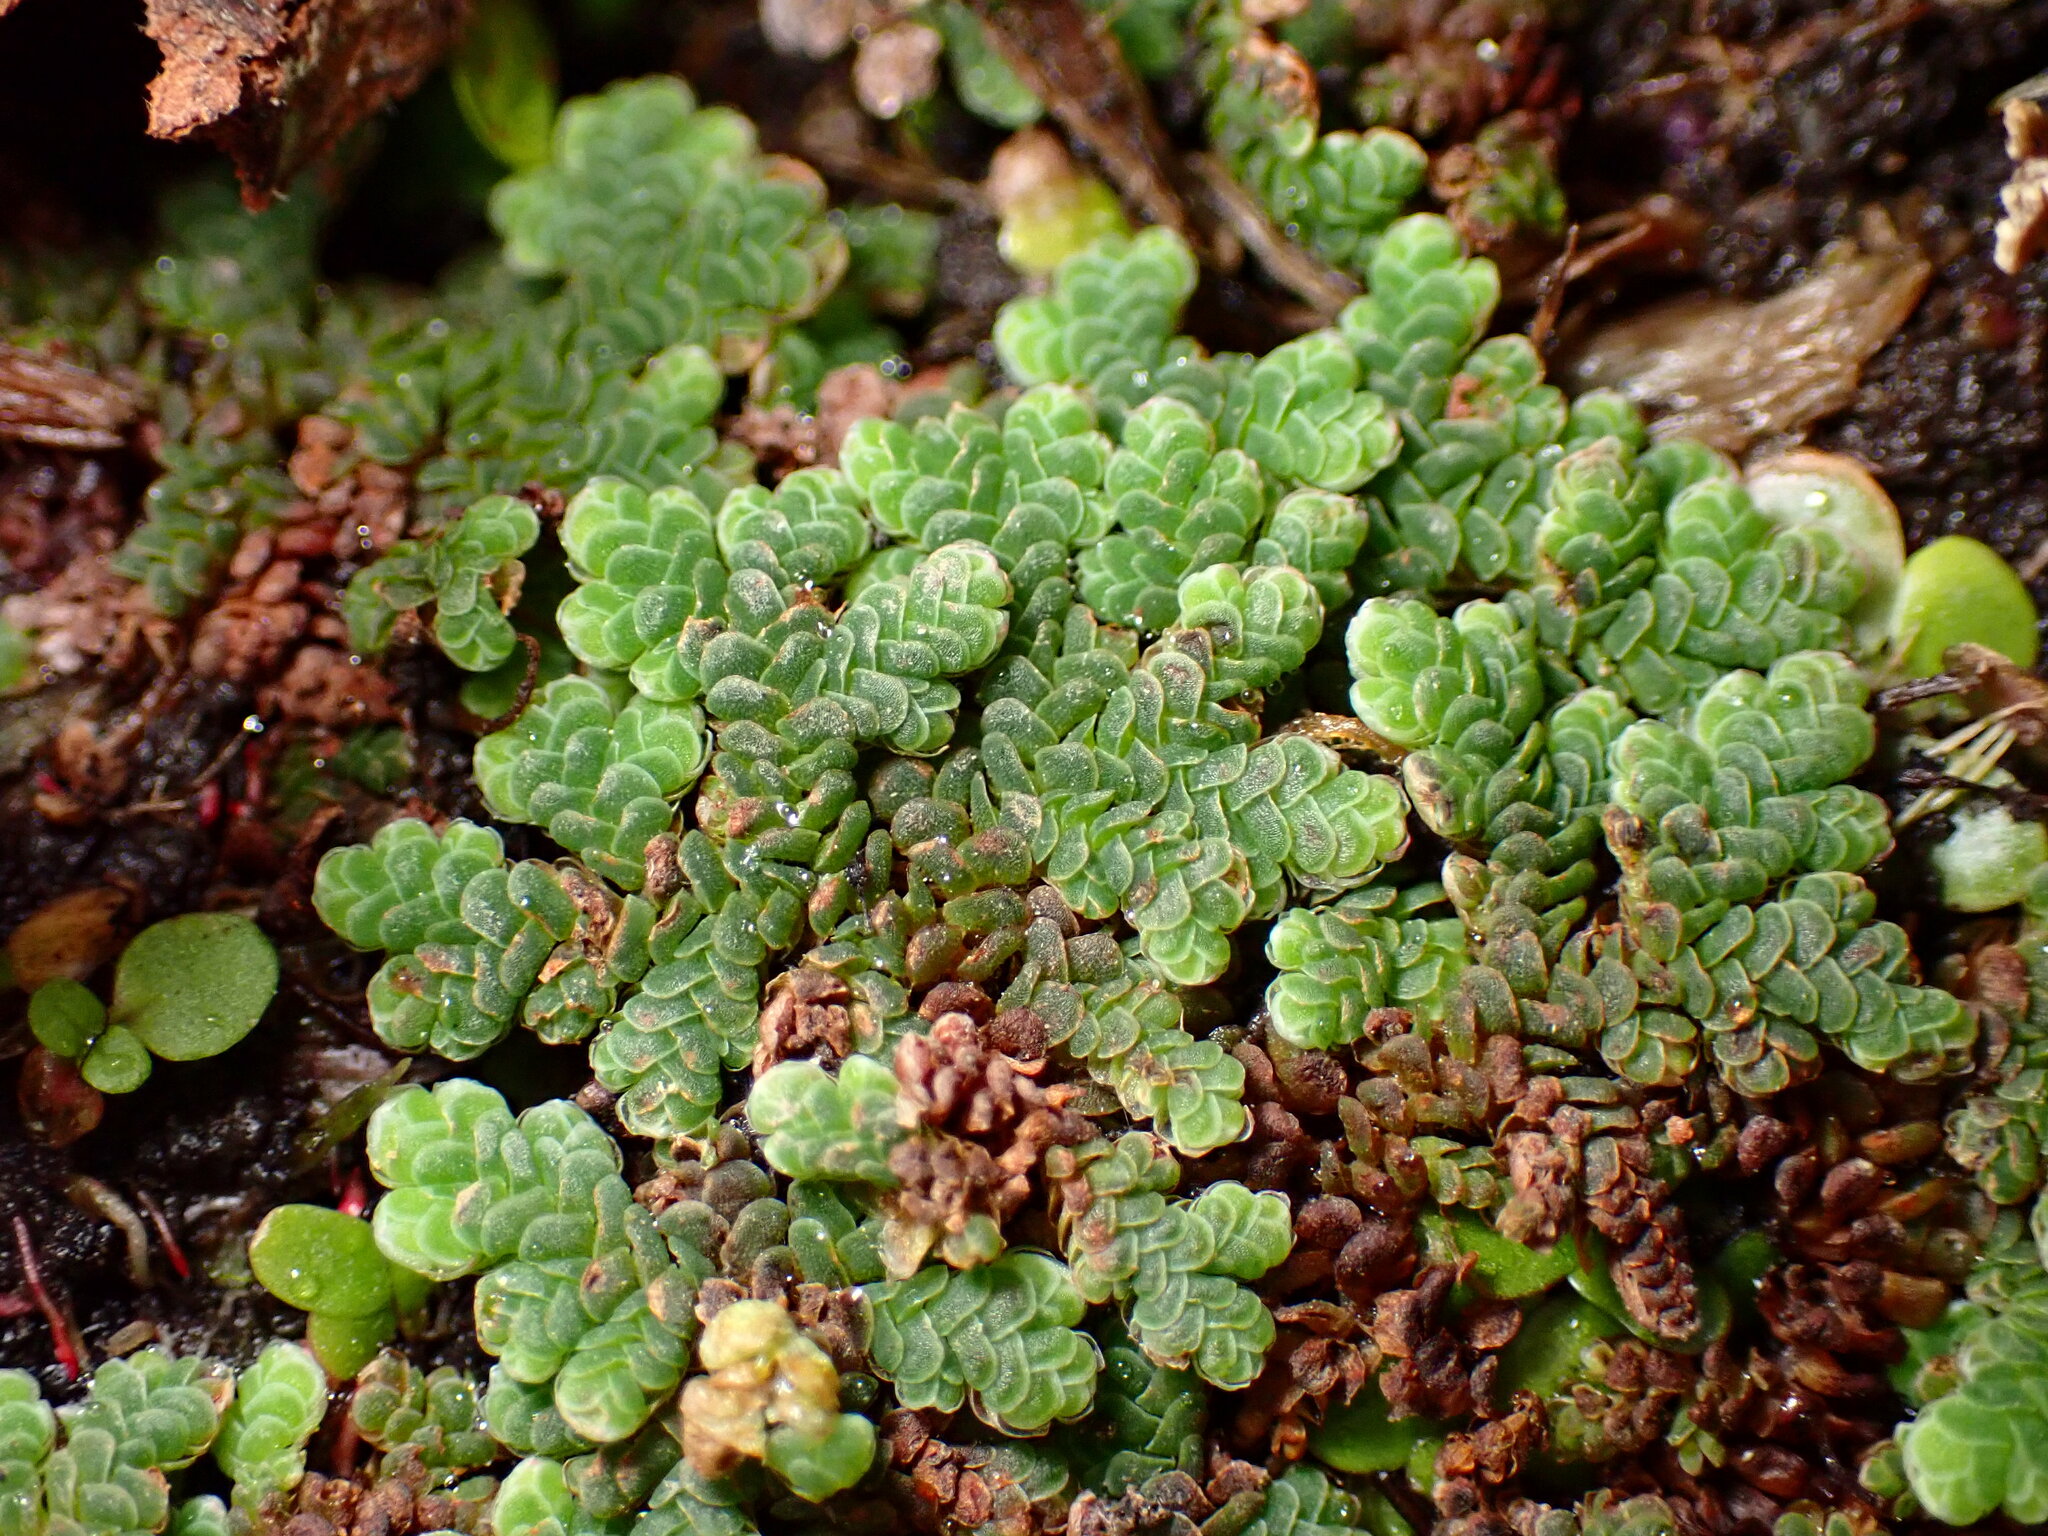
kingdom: Plantae
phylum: Tracheophyta
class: Polypodiopsida
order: Salviniales
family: Salviniaceae
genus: Azolla
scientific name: Azolla filiculoides
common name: Water fern
